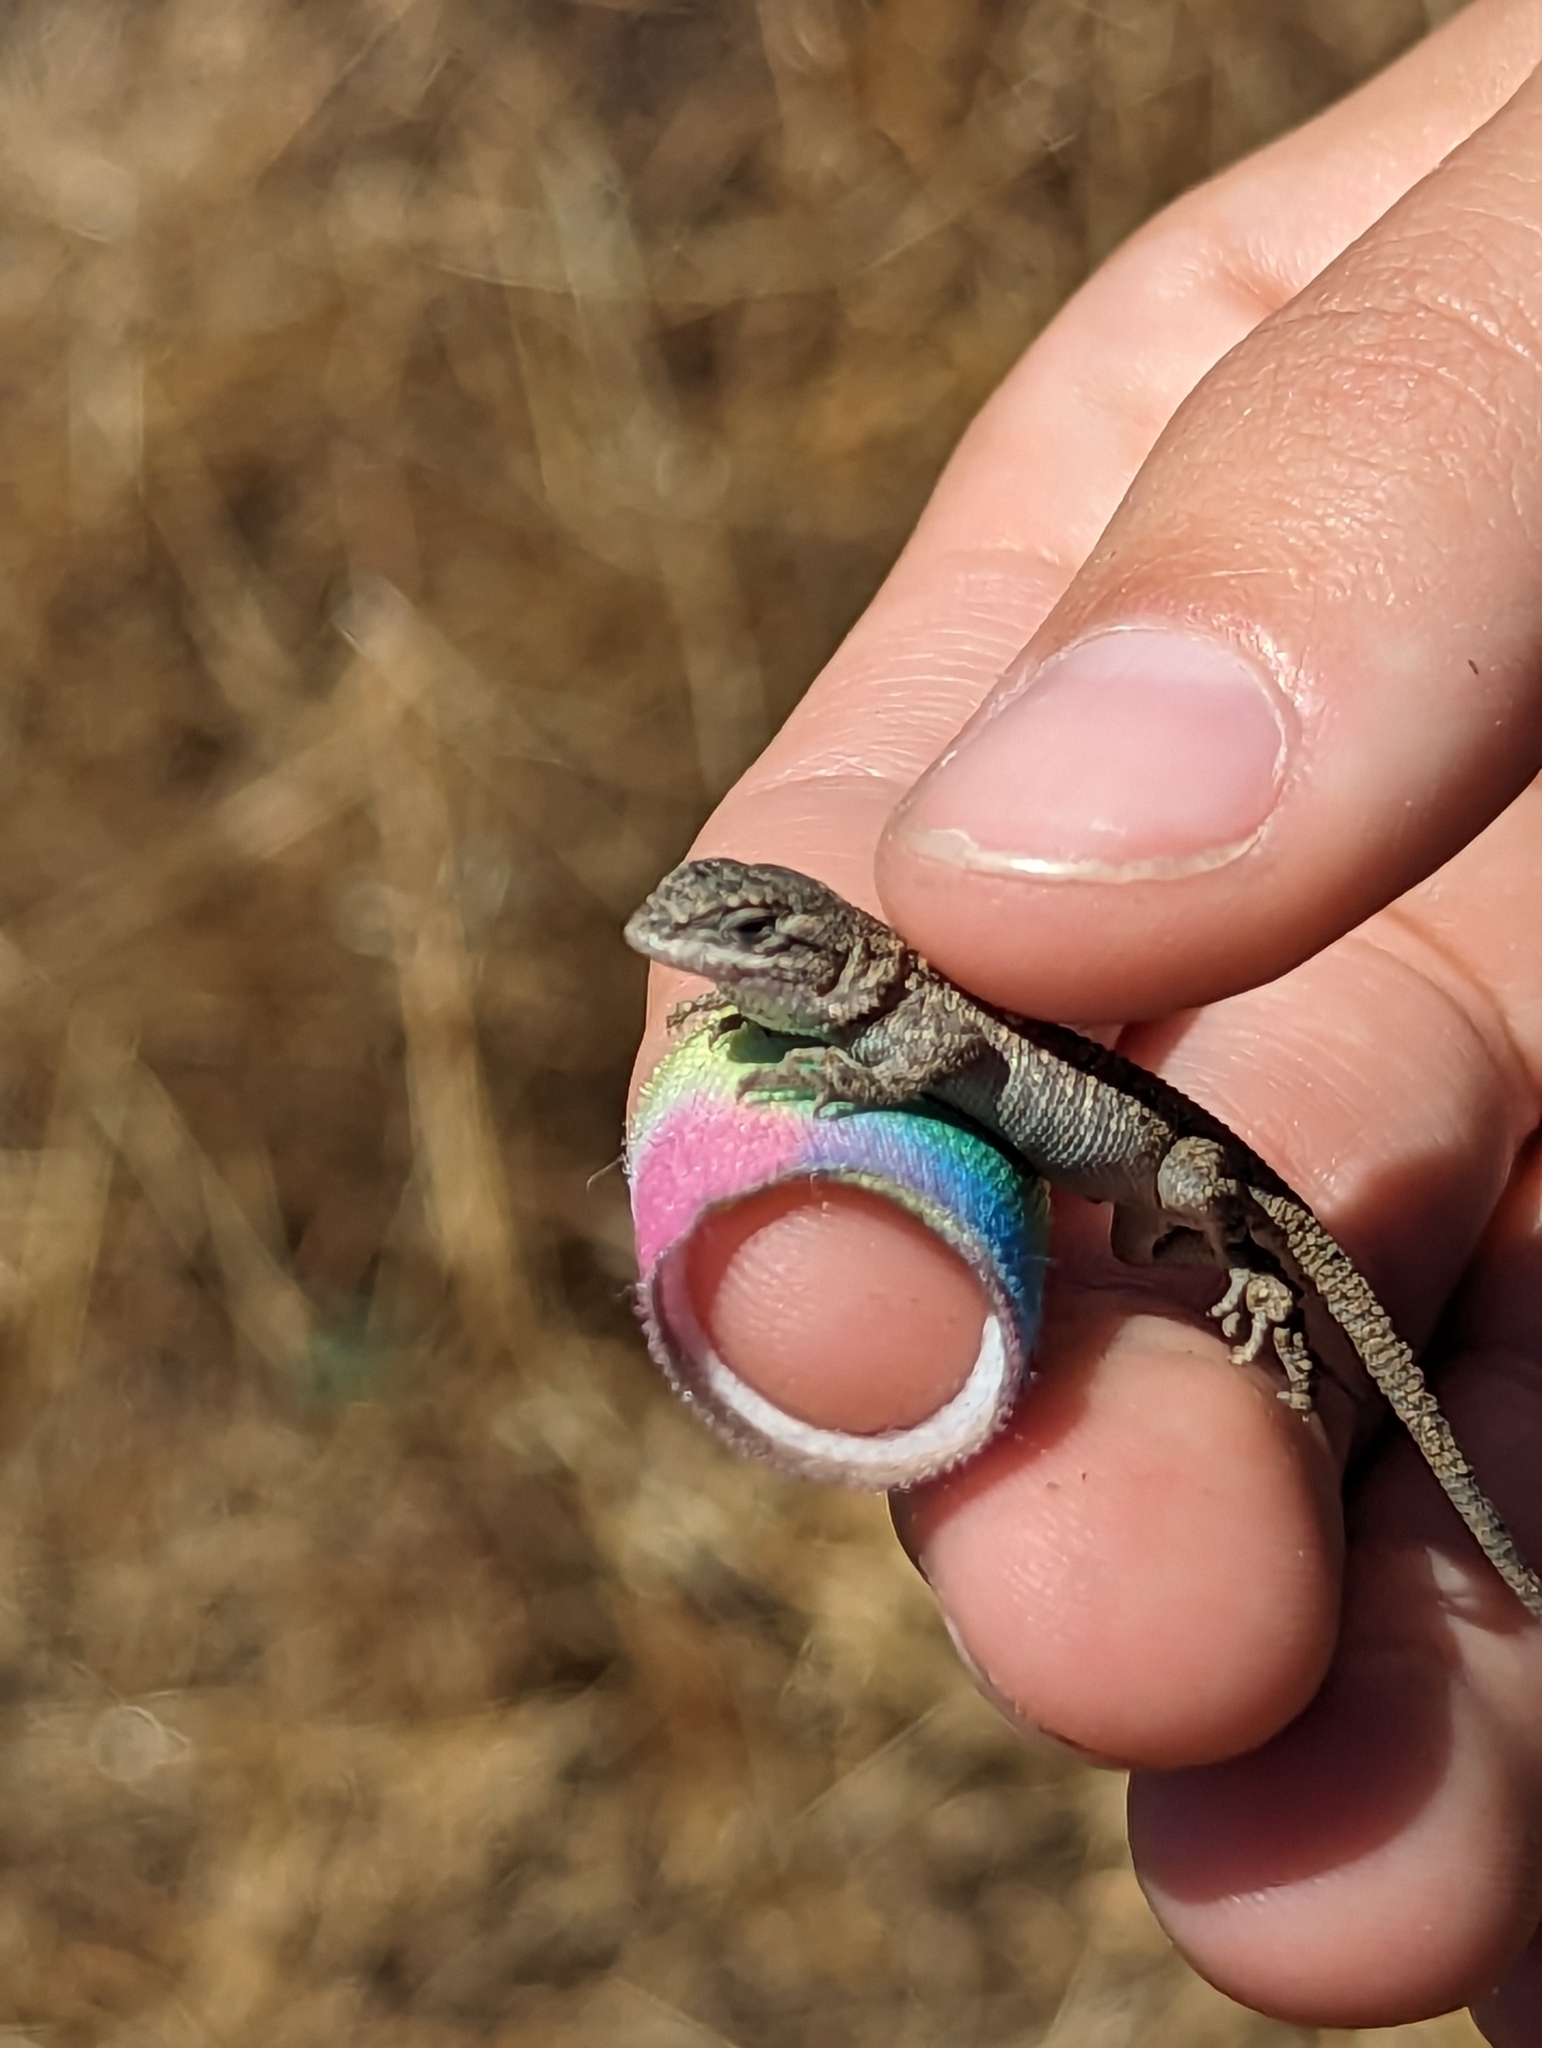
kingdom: Animalia
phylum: Chordata
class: Squamata
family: Phrynosomatidae
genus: Sceloporus
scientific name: Sceloporus occidentalis
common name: Western fence lizard
